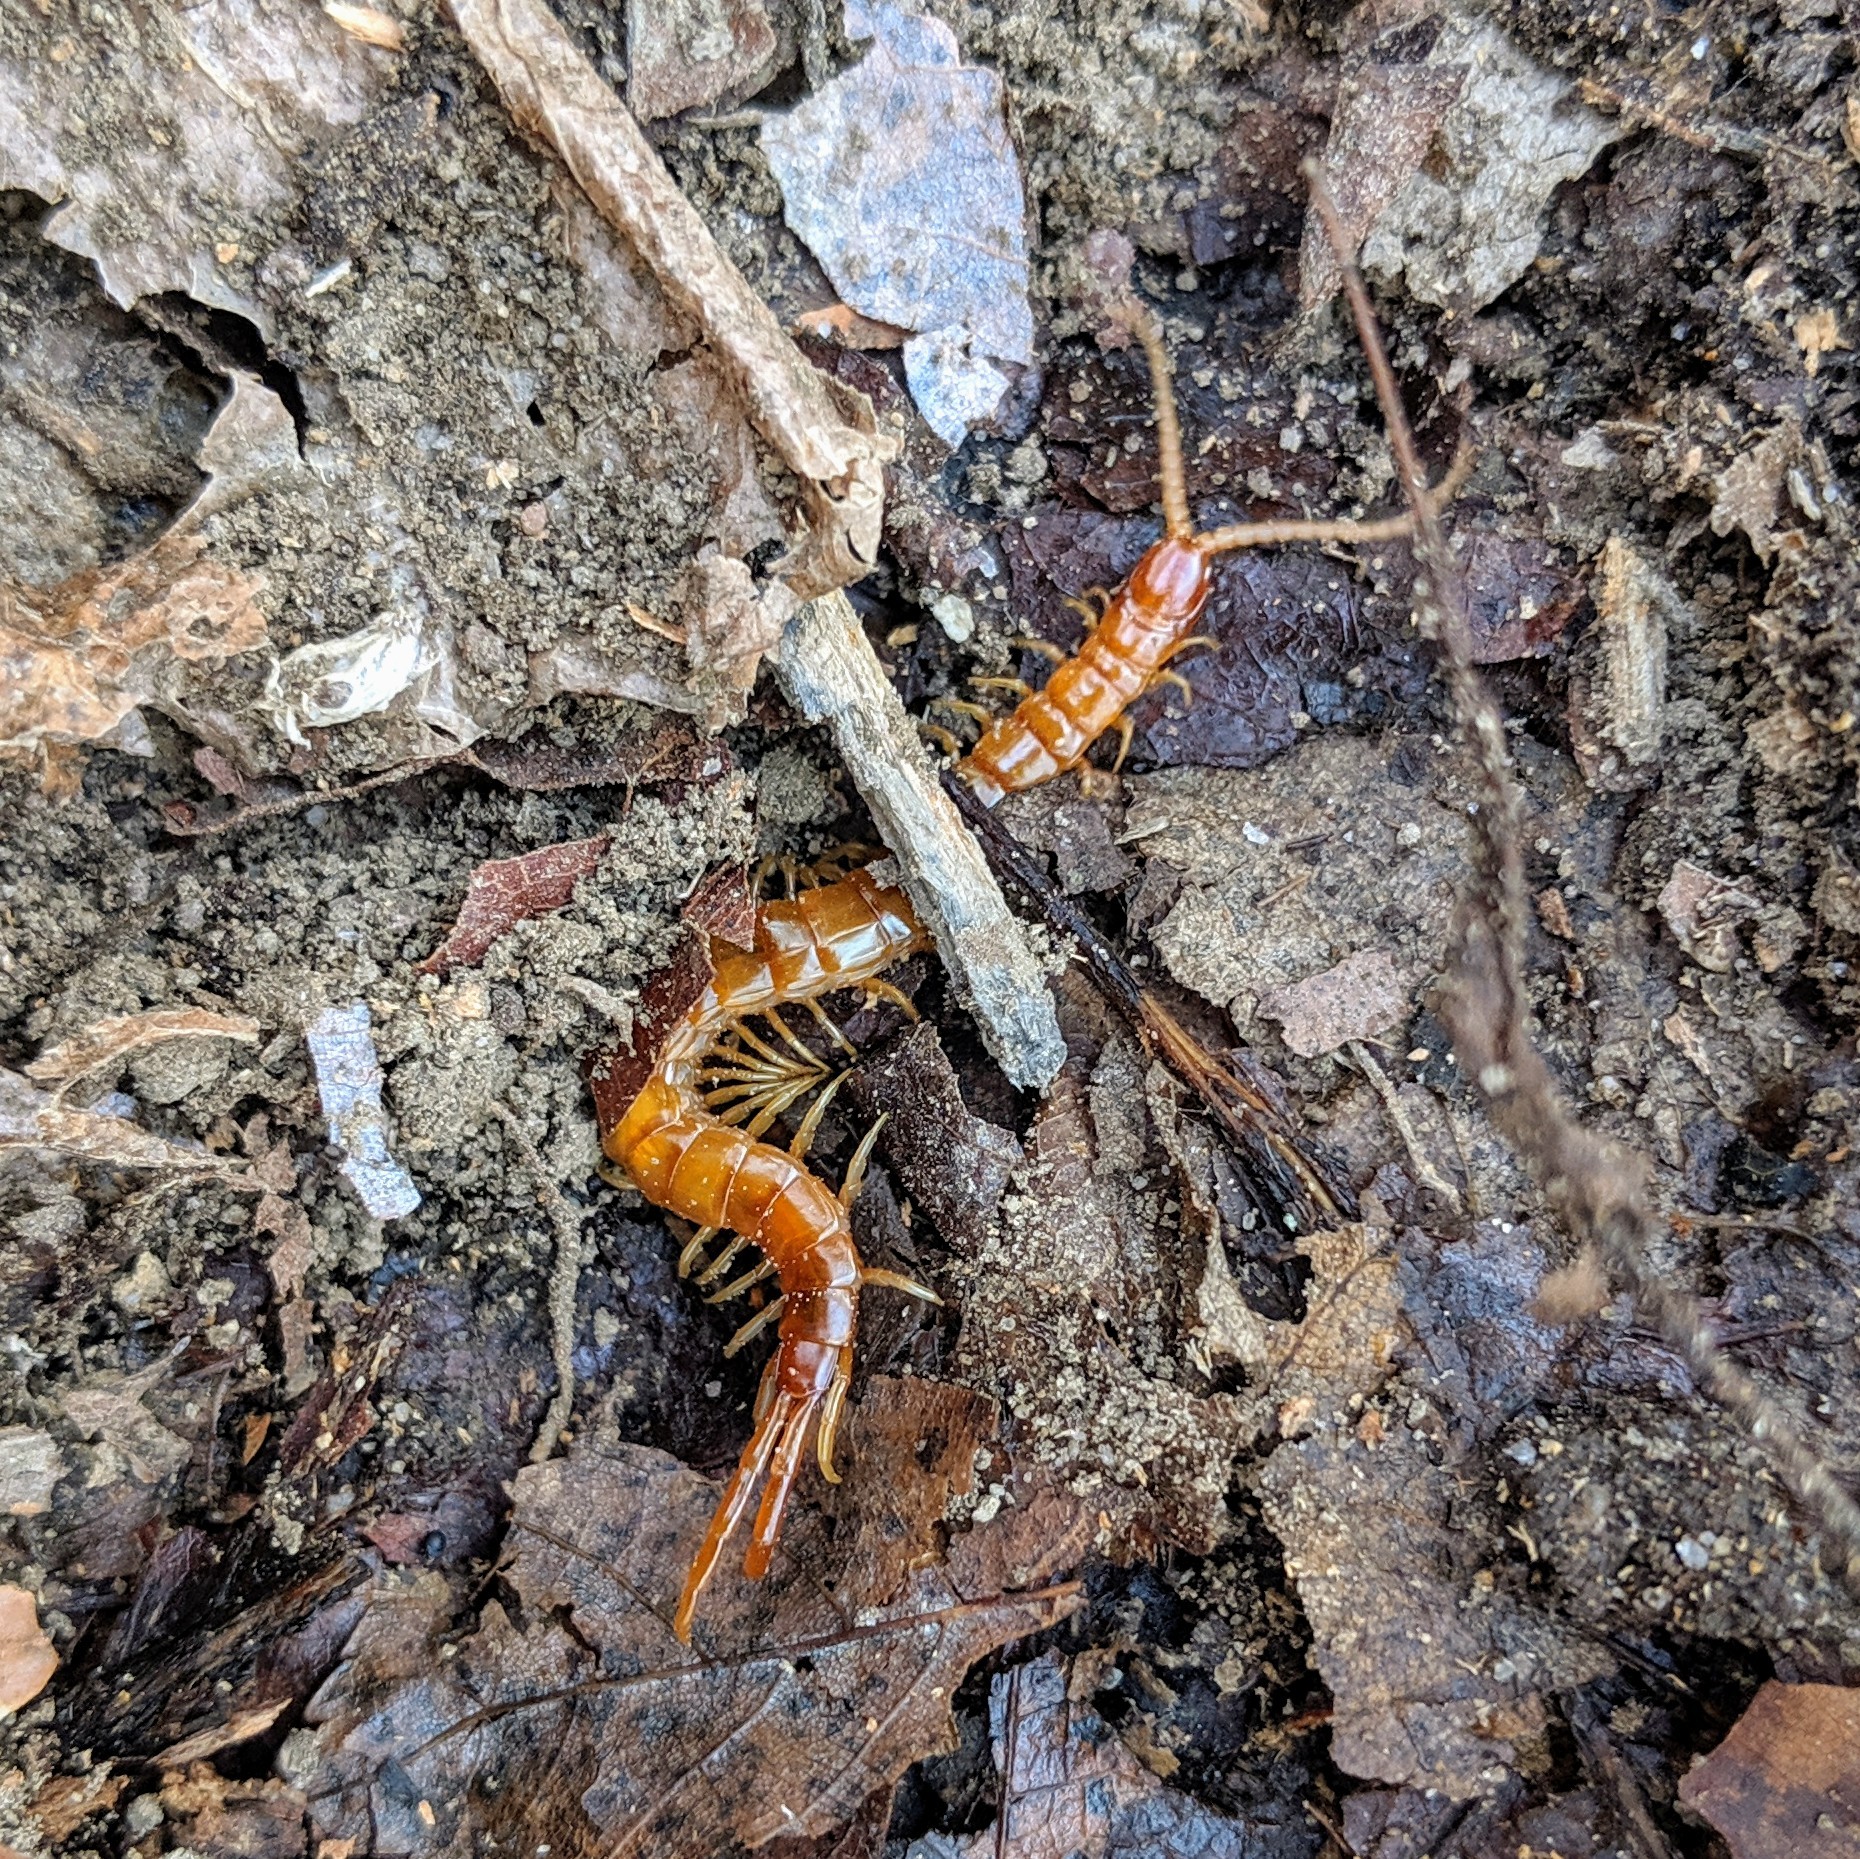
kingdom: Animalia
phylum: Arthropoda
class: Chilopoda
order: Scolopendromorpha
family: Scolopocryptopidae
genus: Scolopocryptops
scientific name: Scolopocryptops peregrinator
